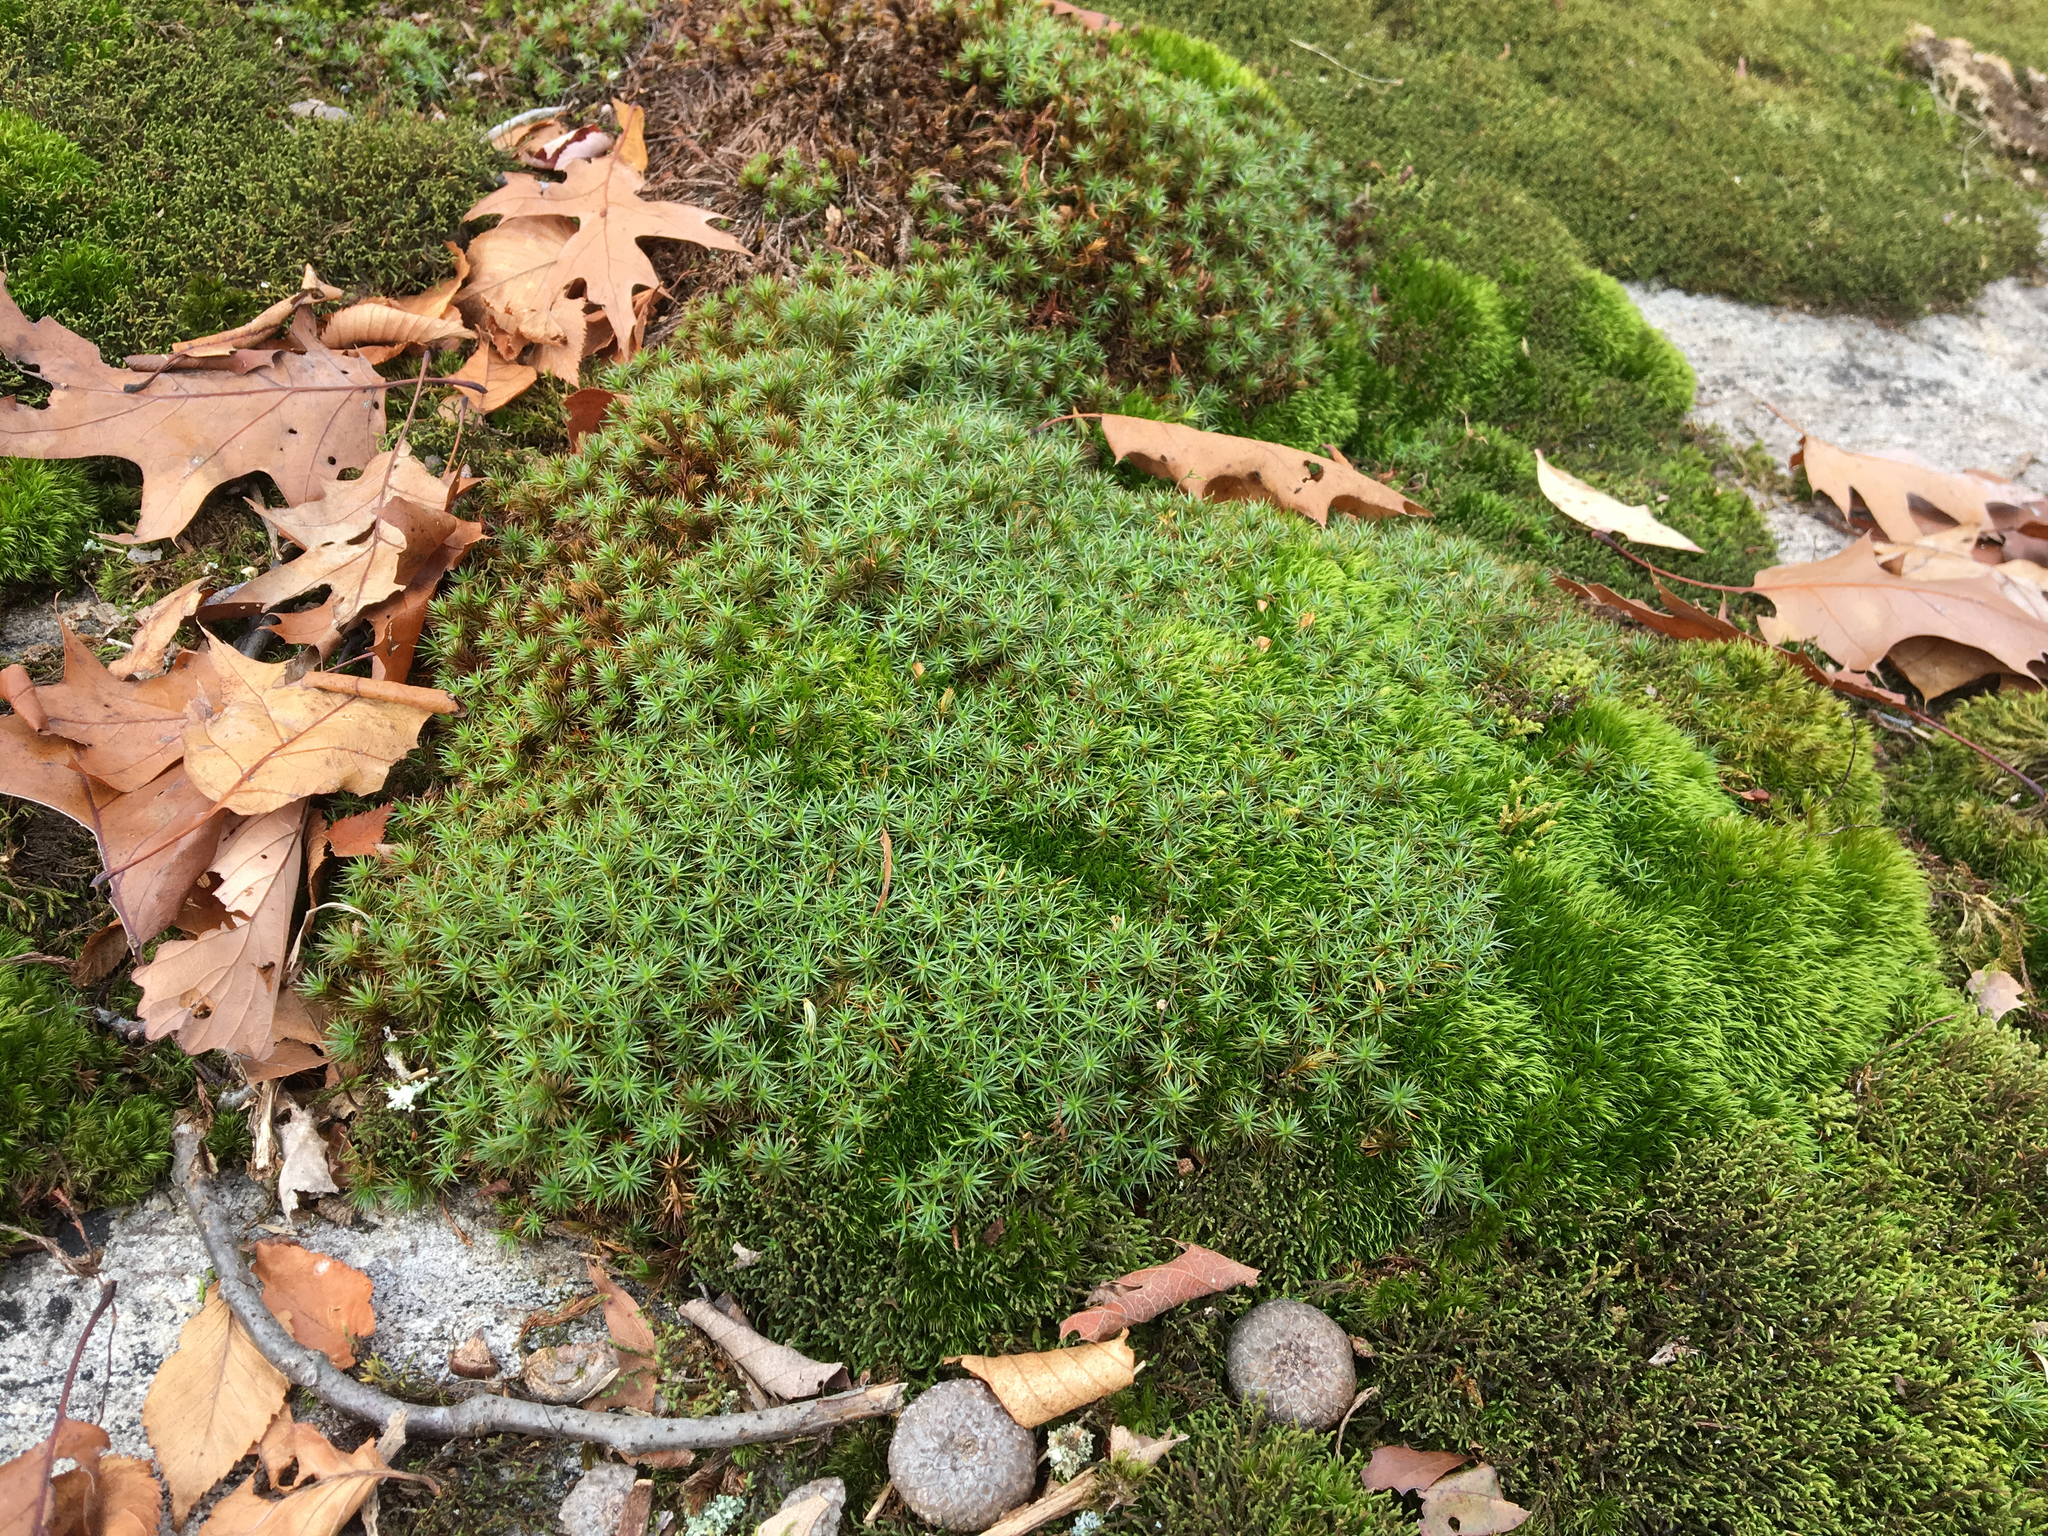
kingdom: Plantae
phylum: Bryophyta
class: Polytrichopsida
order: Polytrichales
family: Polytrichaceae
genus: Polytrichum
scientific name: Polytrichum juniperinum
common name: Juniper haircap moss
